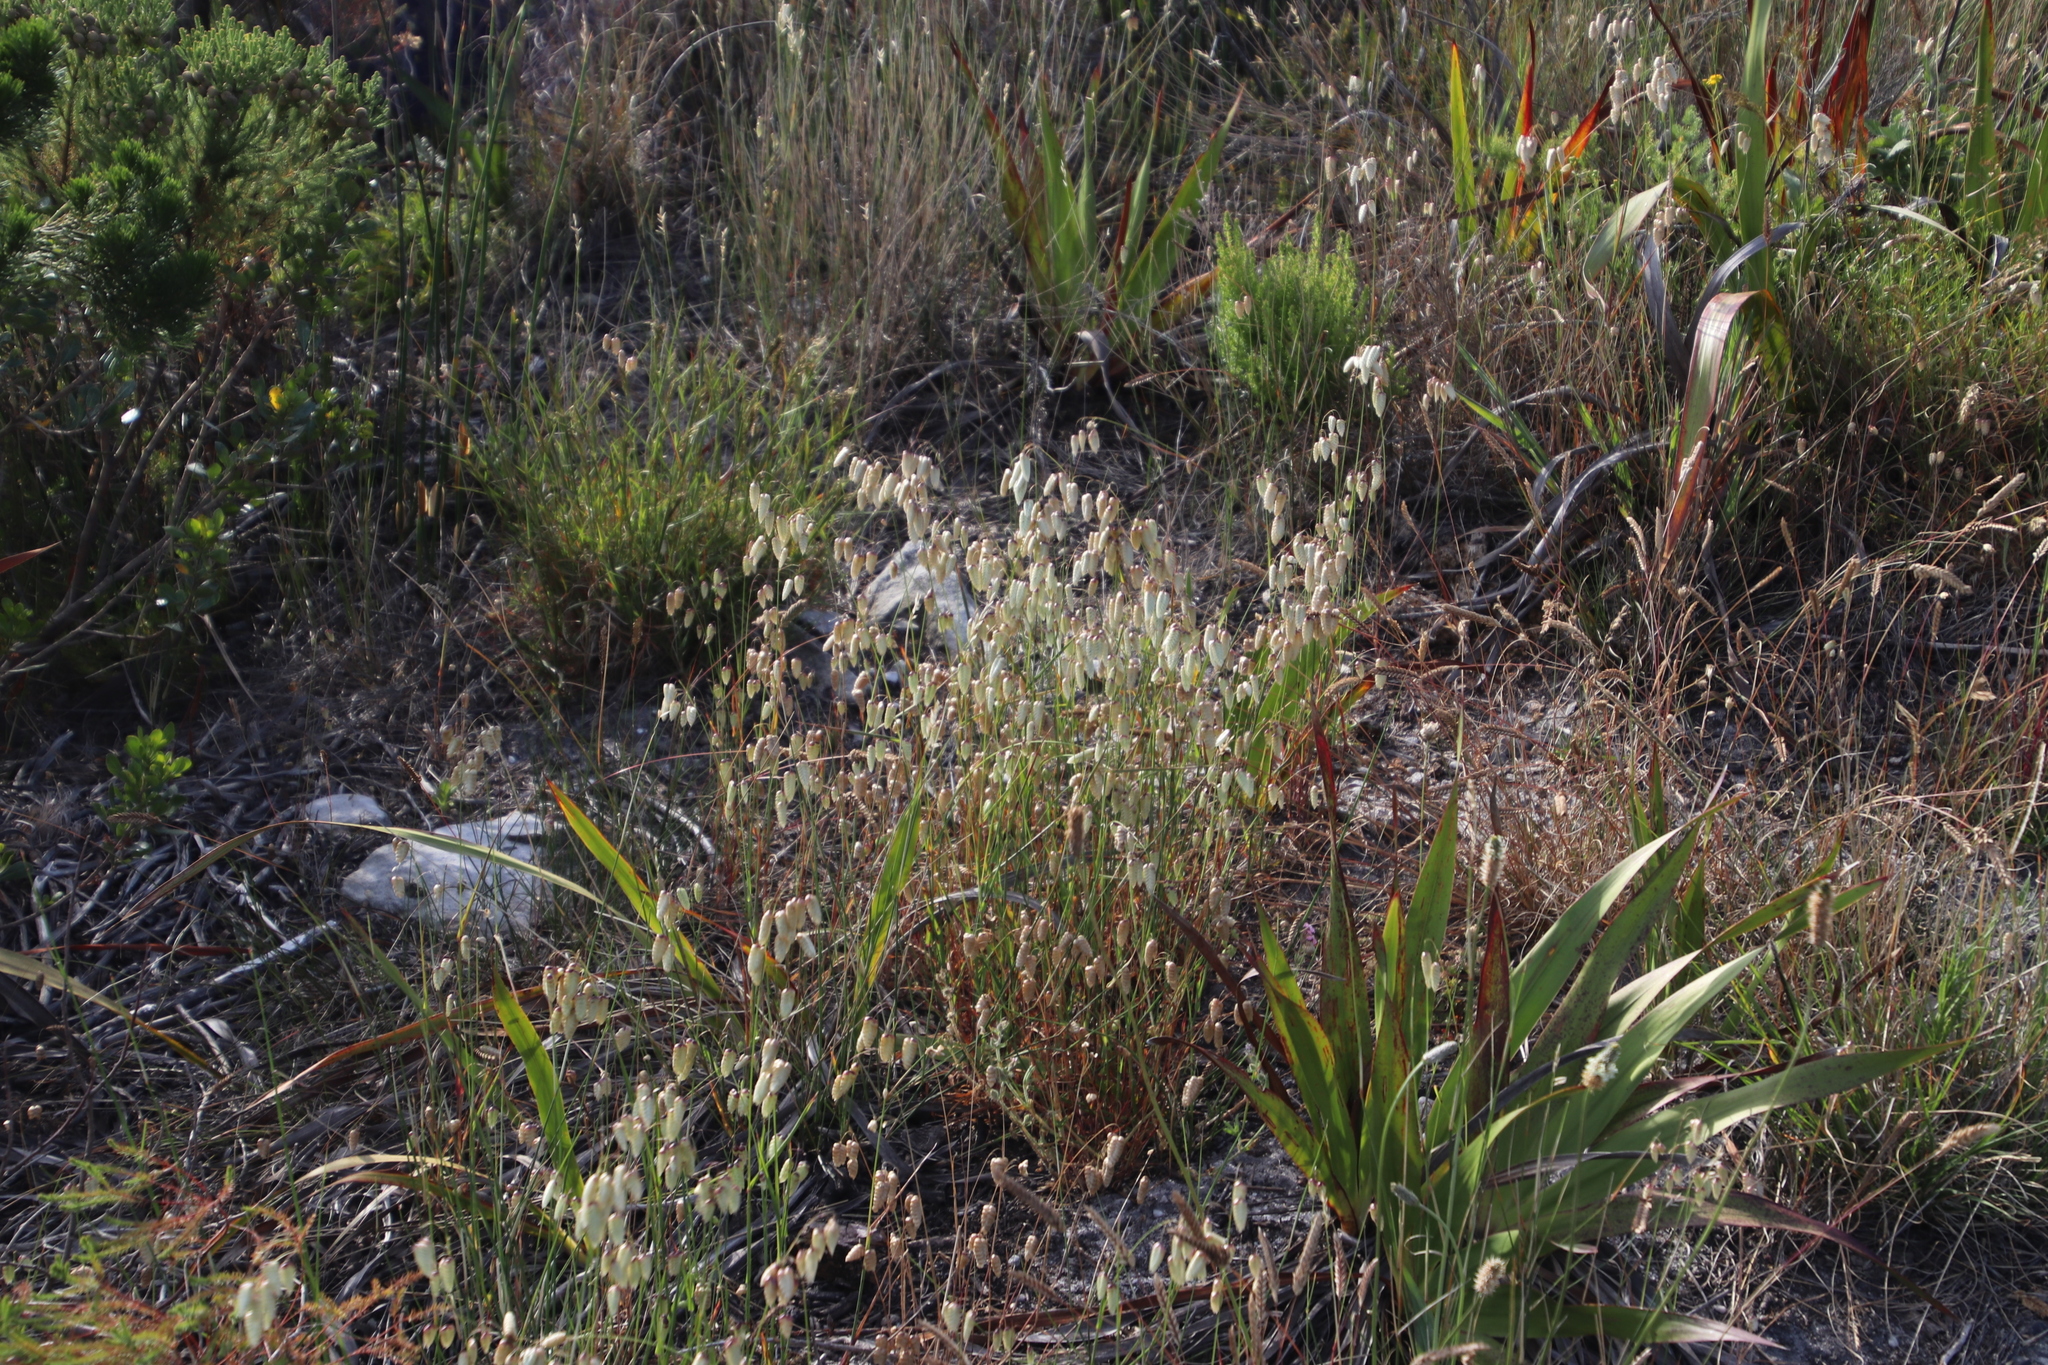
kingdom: Plantae
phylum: Tracheophyta
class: Liliopsida
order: Poales
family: Poaceae
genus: Briza
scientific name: Briza maxima
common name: Big quakinggrass
